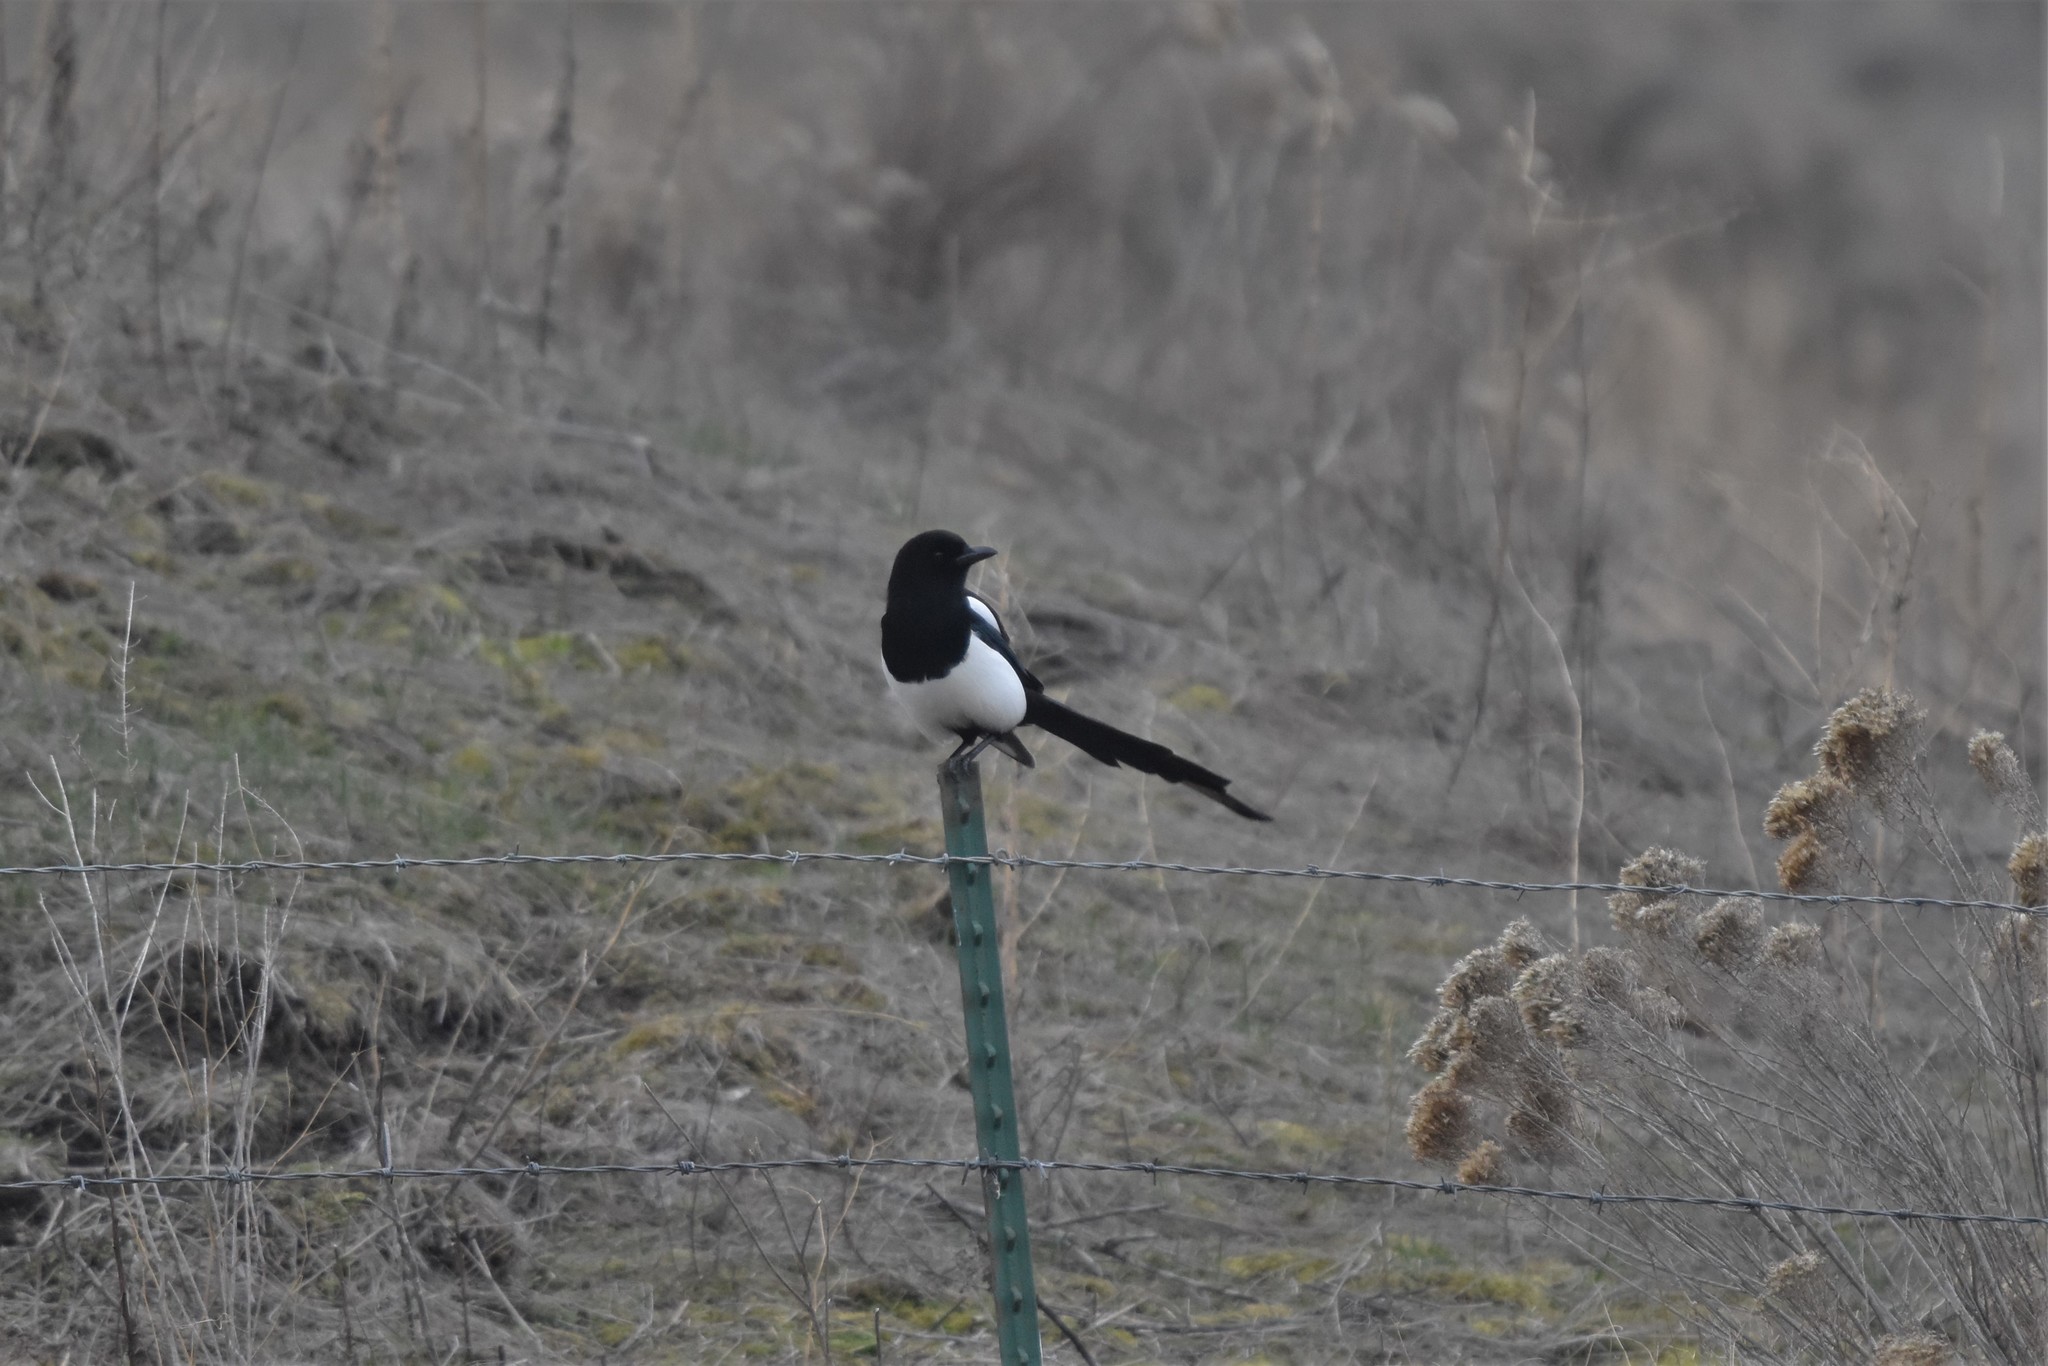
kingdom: Animalia
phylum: Chordata
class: Aves
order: Passeriformes
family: Corvidae
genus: Pica
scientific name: Pica hudsonia
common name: Black-billed magpie
